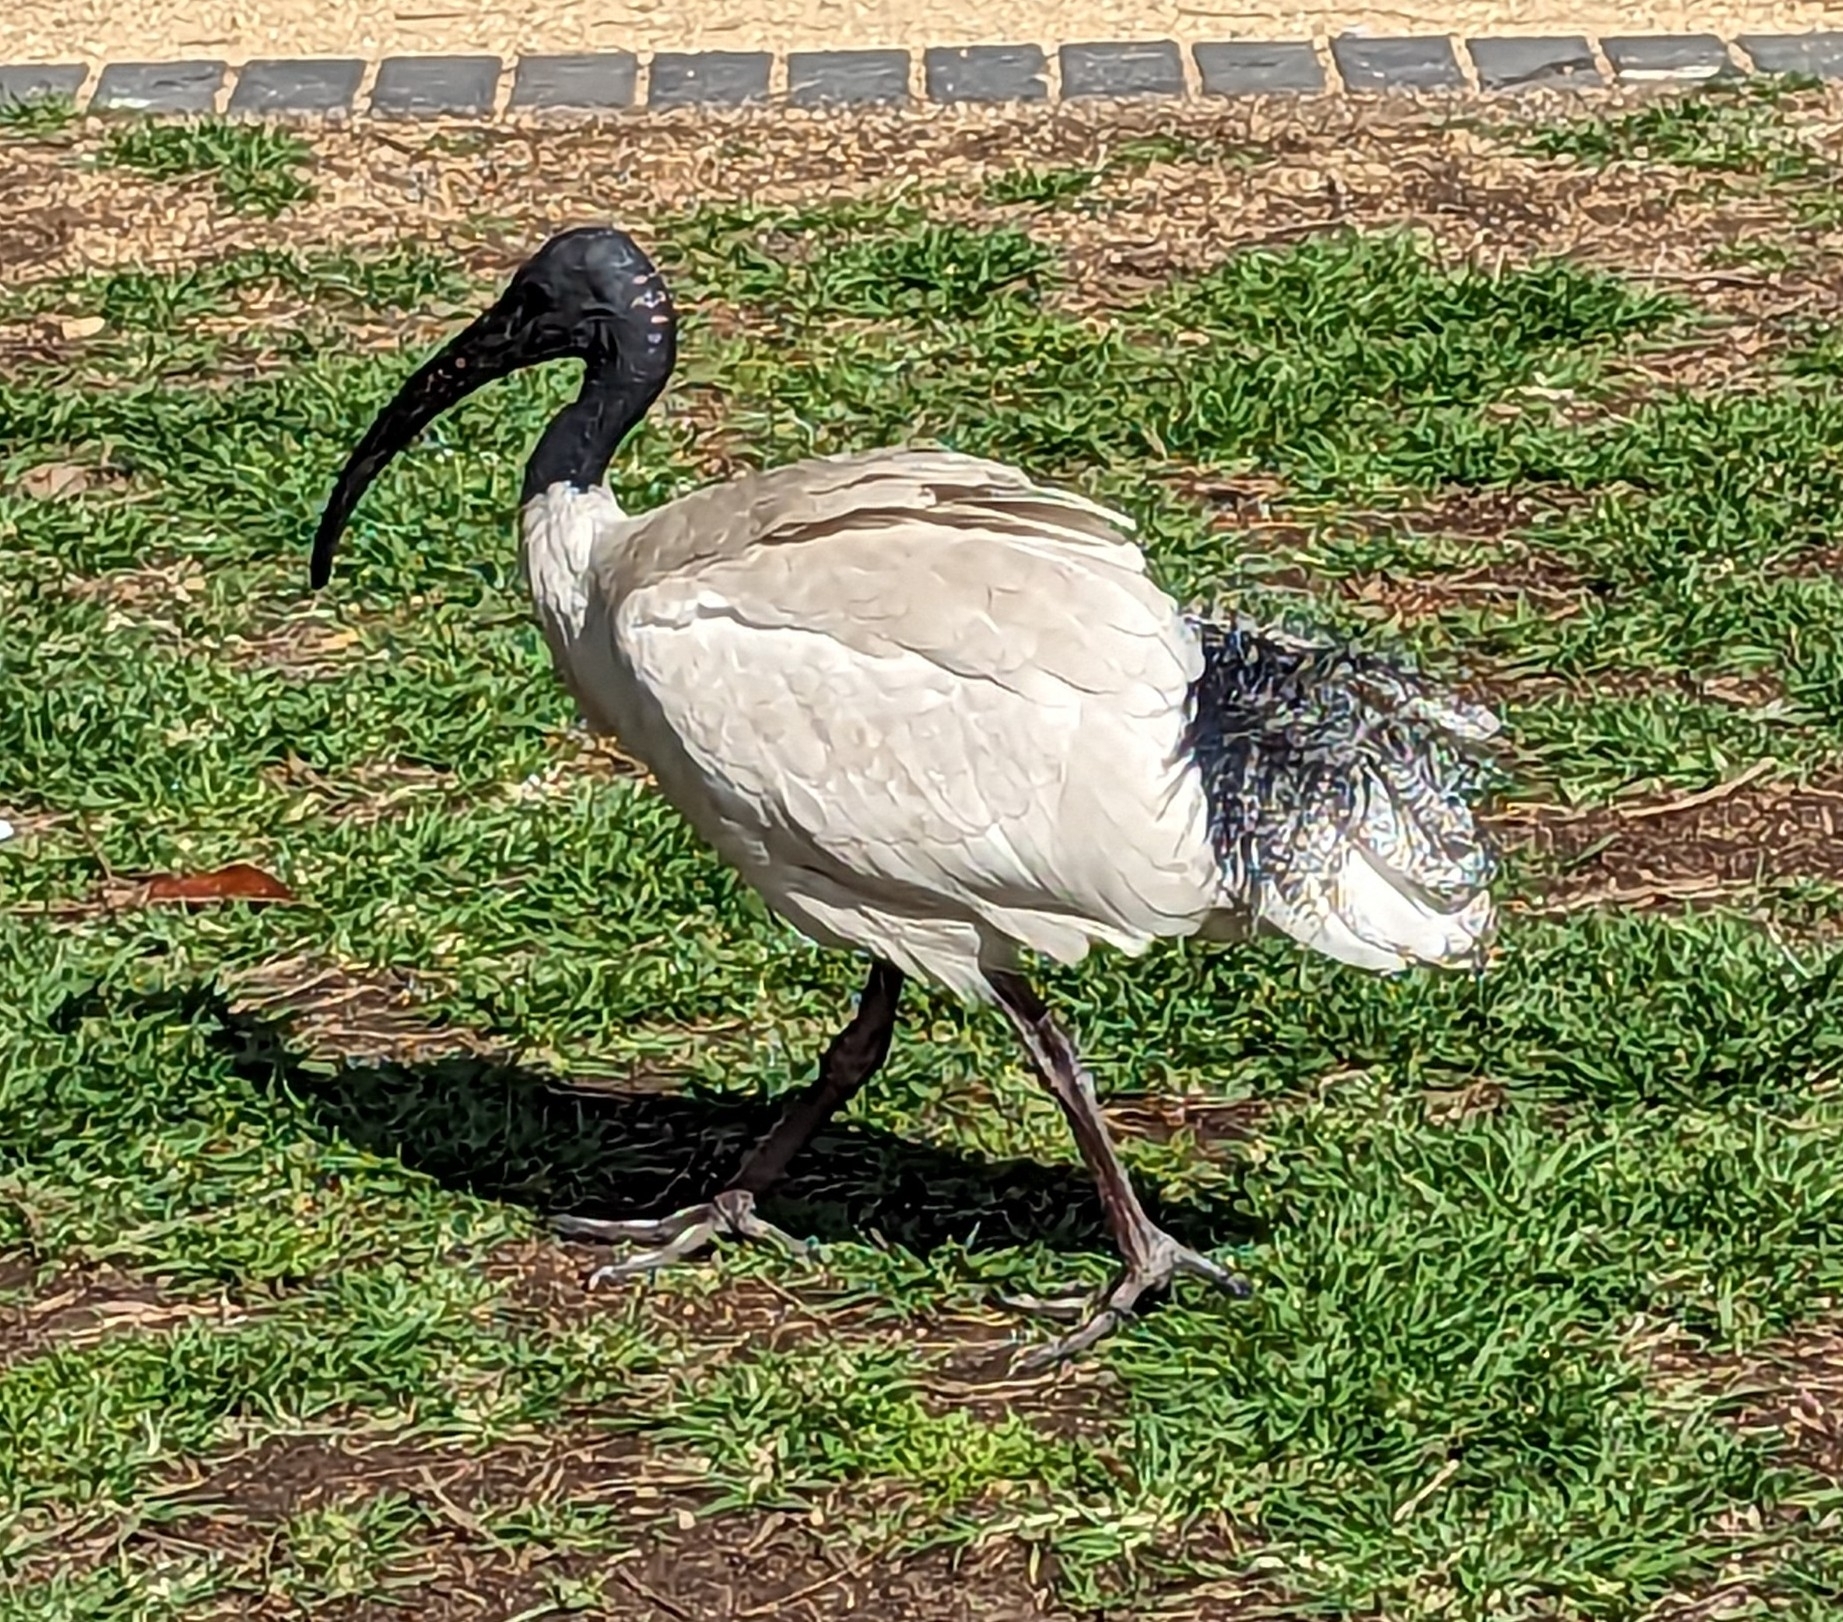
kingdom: Animalia
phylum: Chordata
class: Aves
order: Pelecaniformes
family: Threskiornithidae
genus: Threskiornis
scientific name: Threskiornis molucca
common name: Australian white ibis
